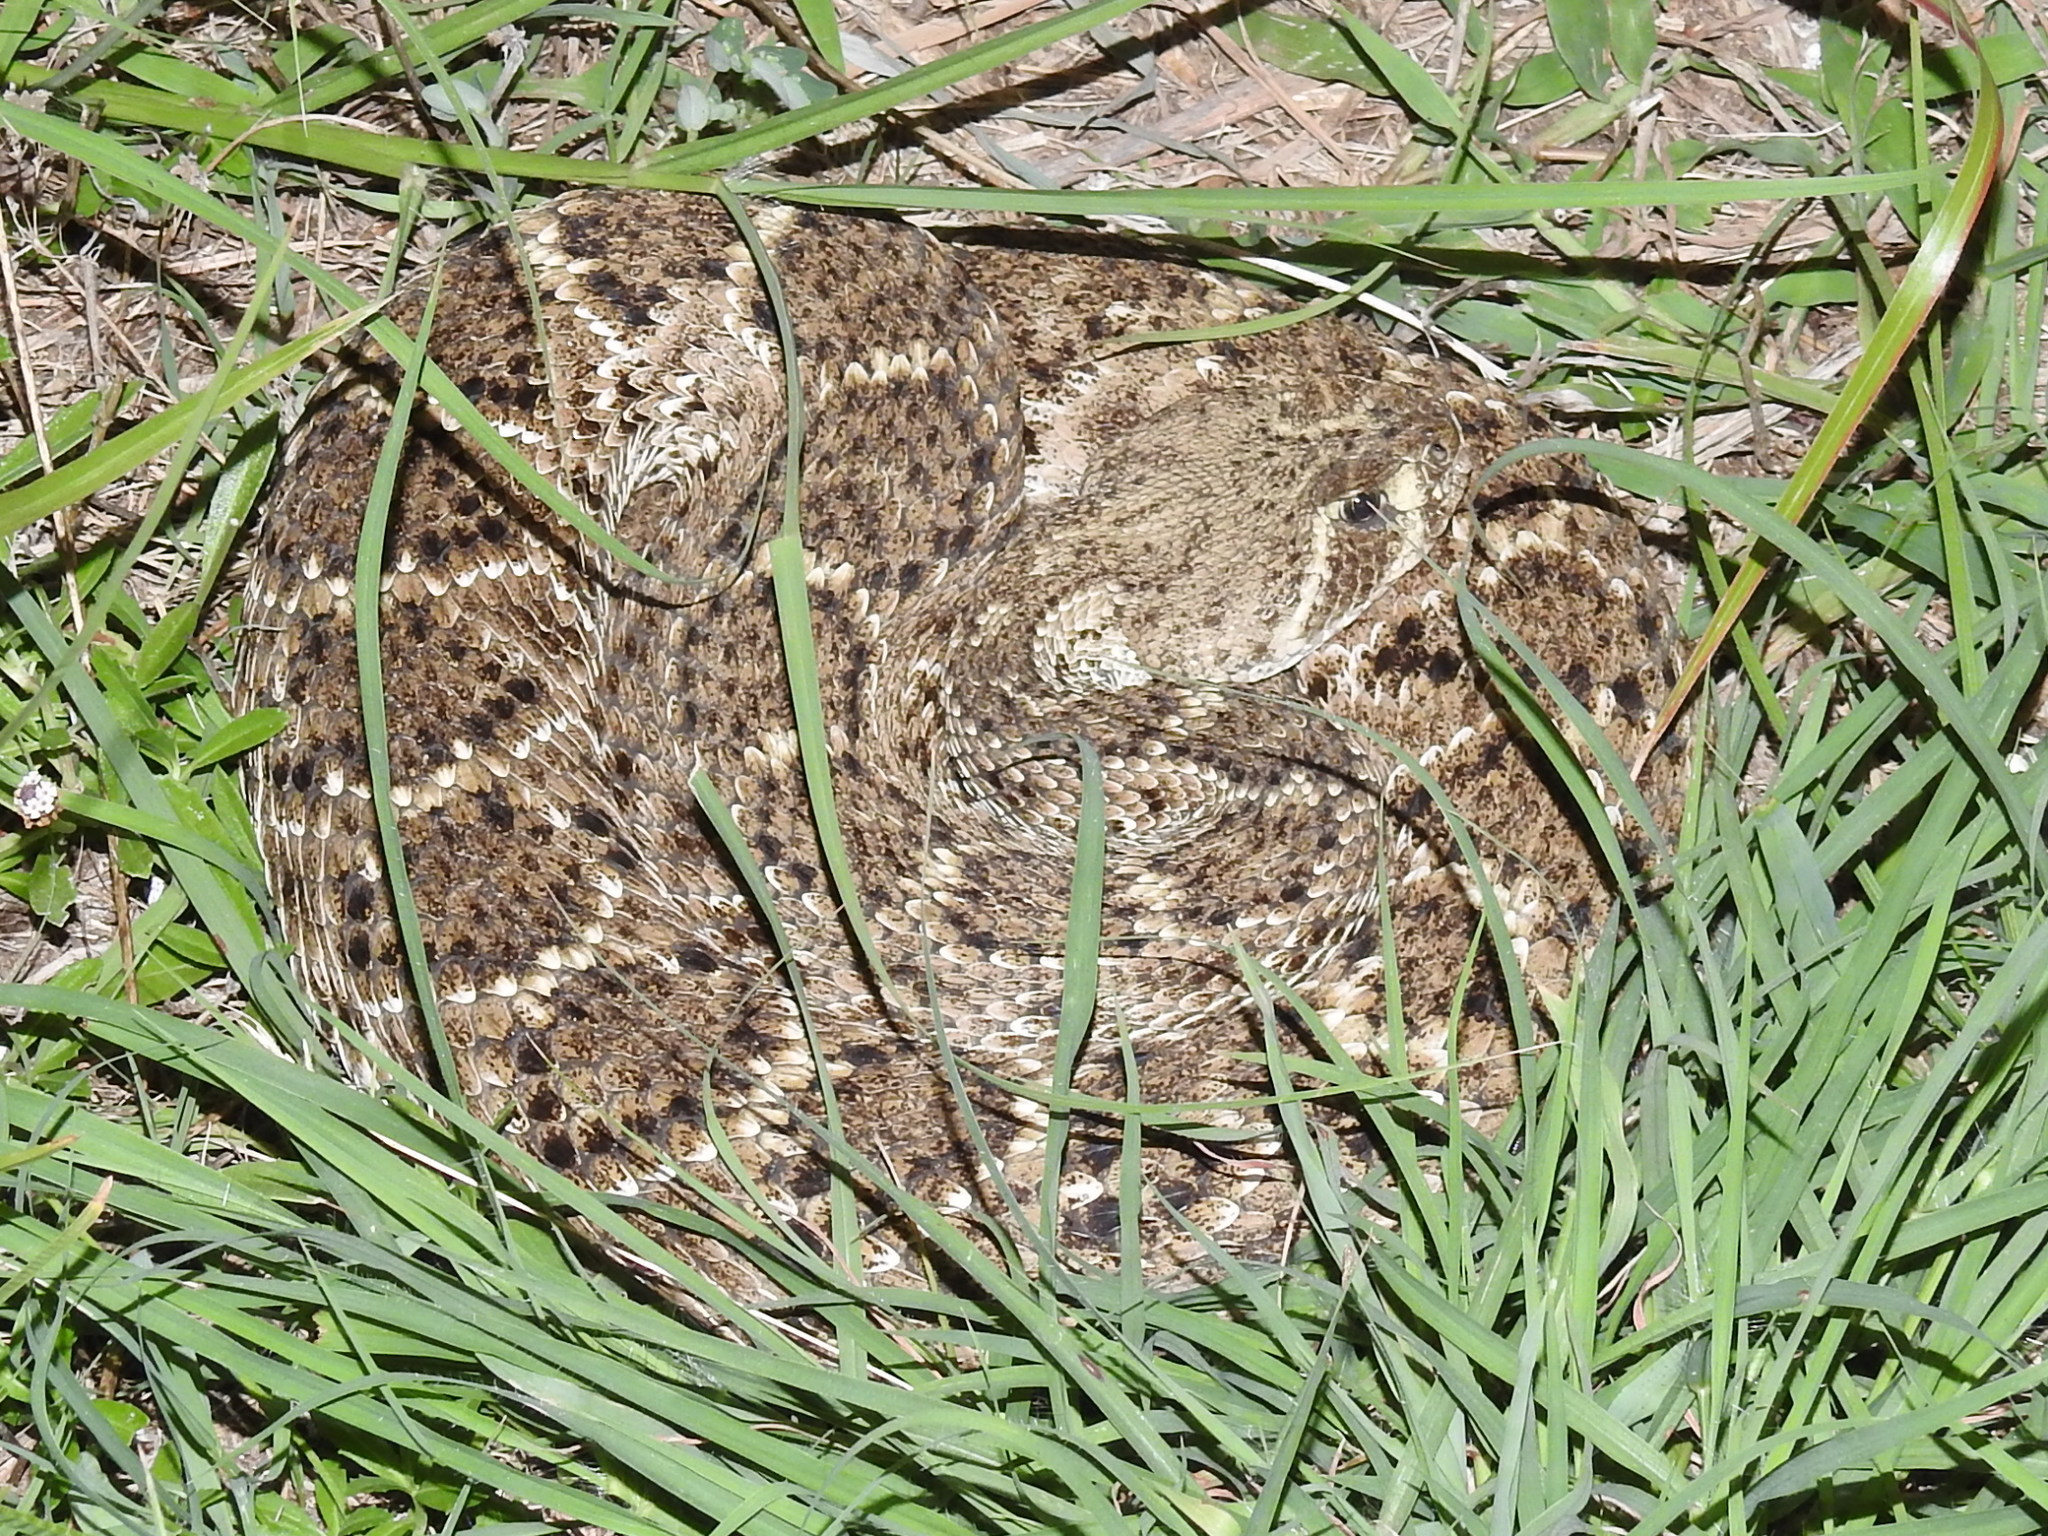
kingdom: Animalia
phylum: Chordata
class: Squamata
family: Viperidae
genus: Crotalus
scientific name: Crotalus atrox
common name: Western diamond-backed rattlesnake
